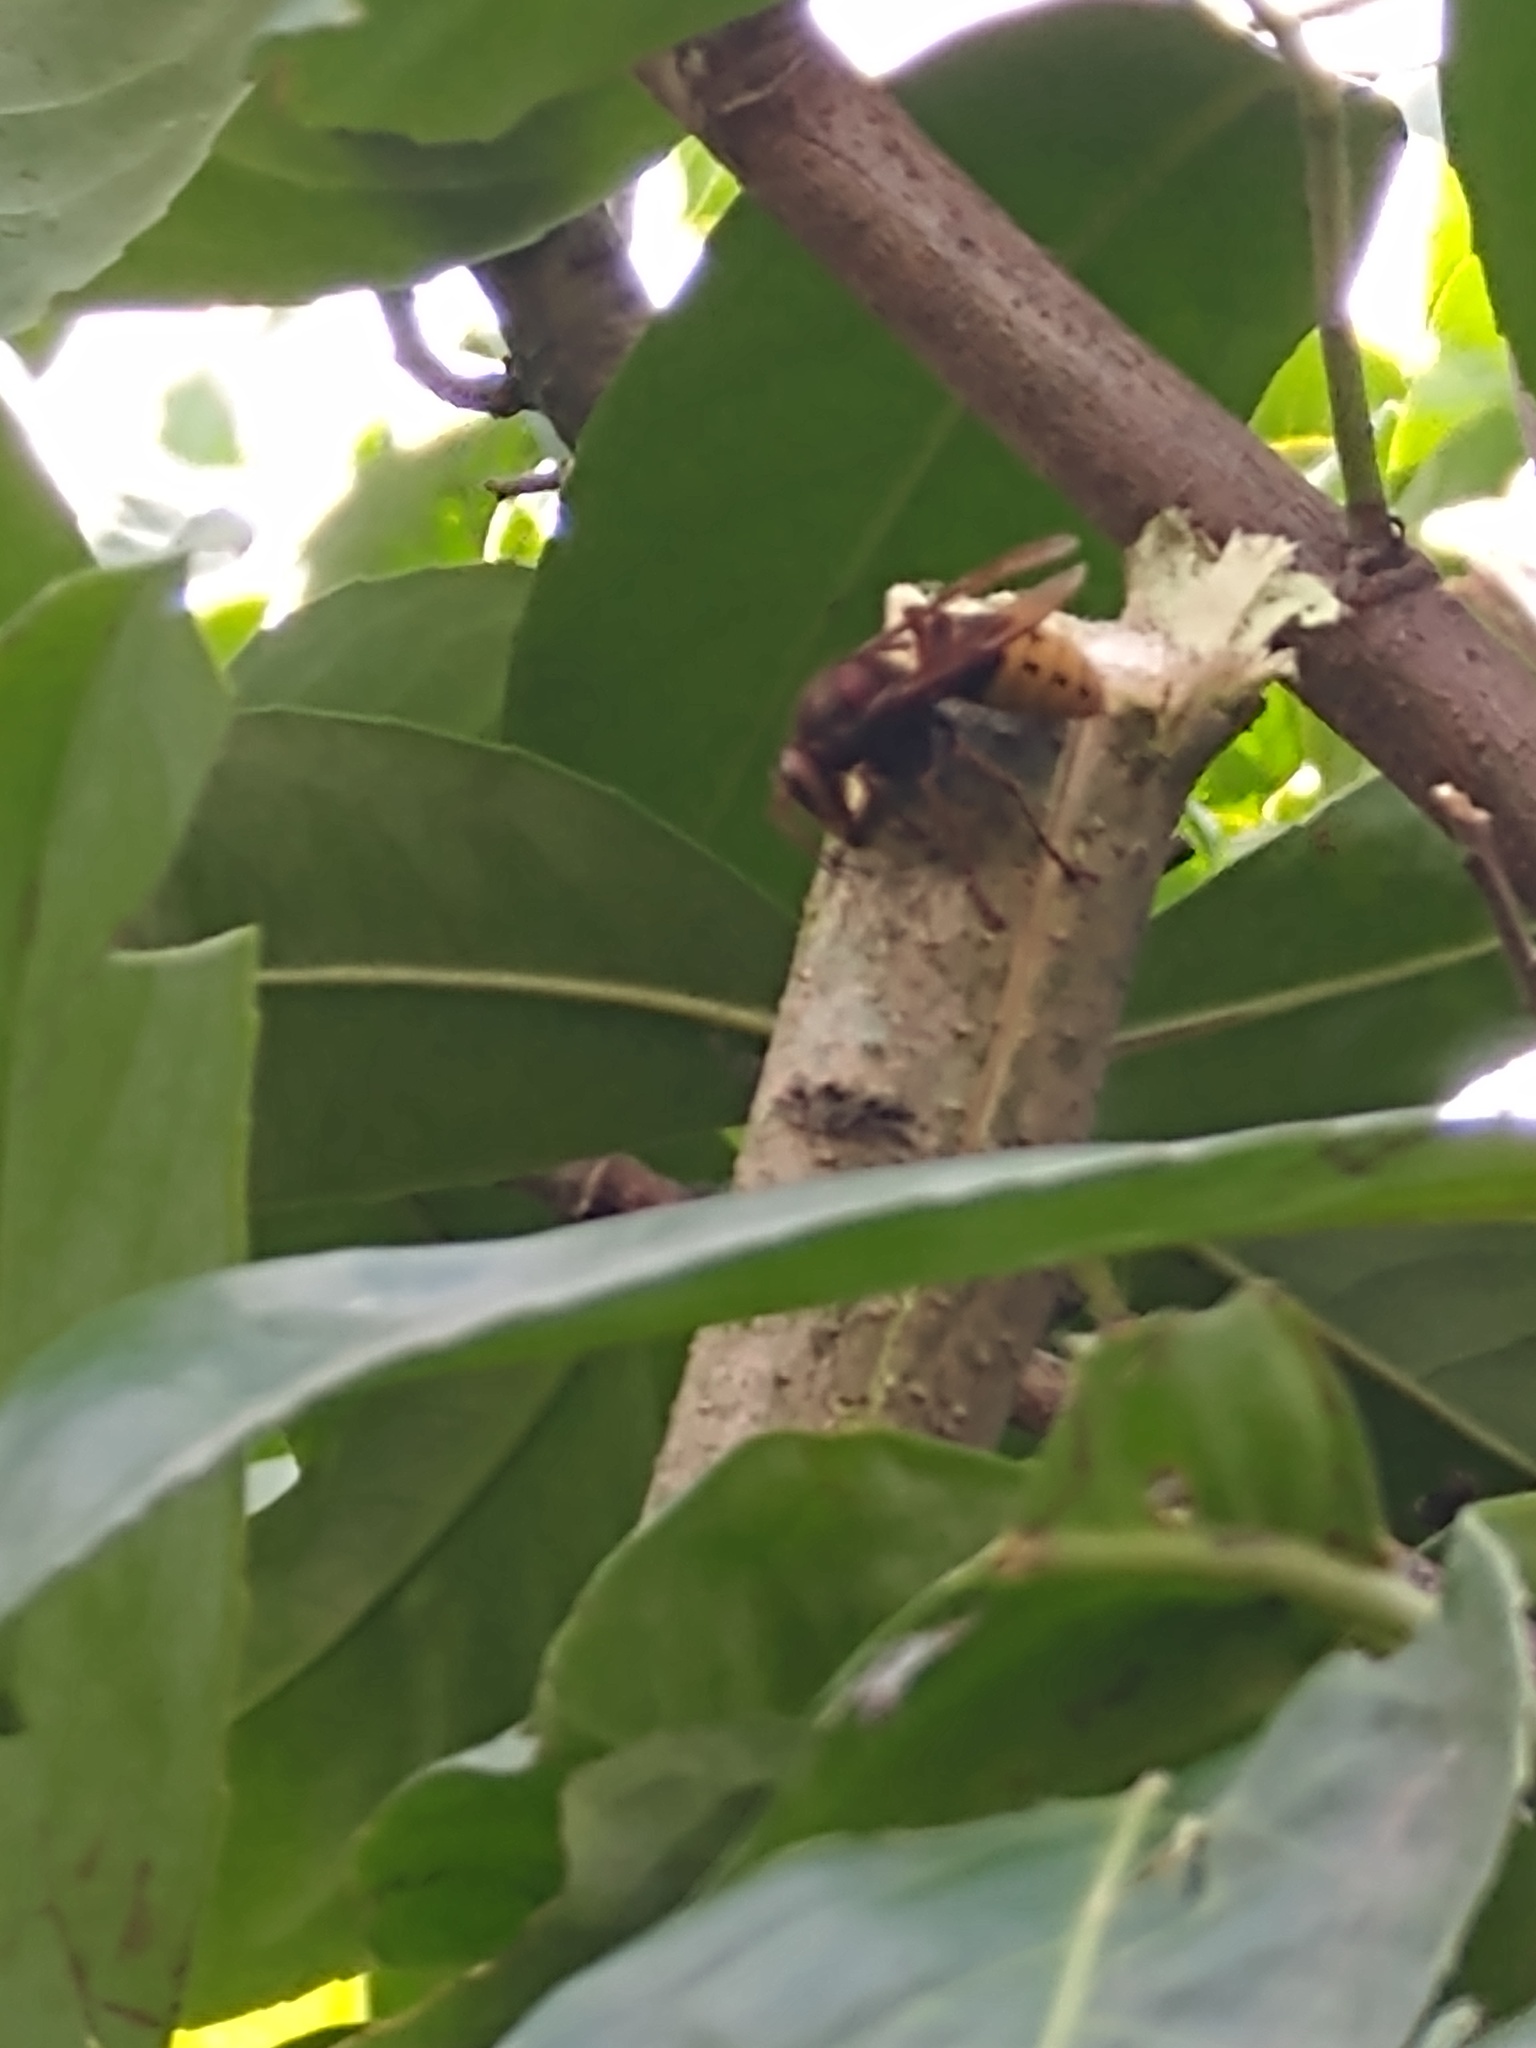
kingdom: Animalia
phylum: Arthropoda
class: Insecta
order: Hymenoptera
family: Vespidae
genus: Vespa
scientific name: Vespa crabro
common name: Hornet
